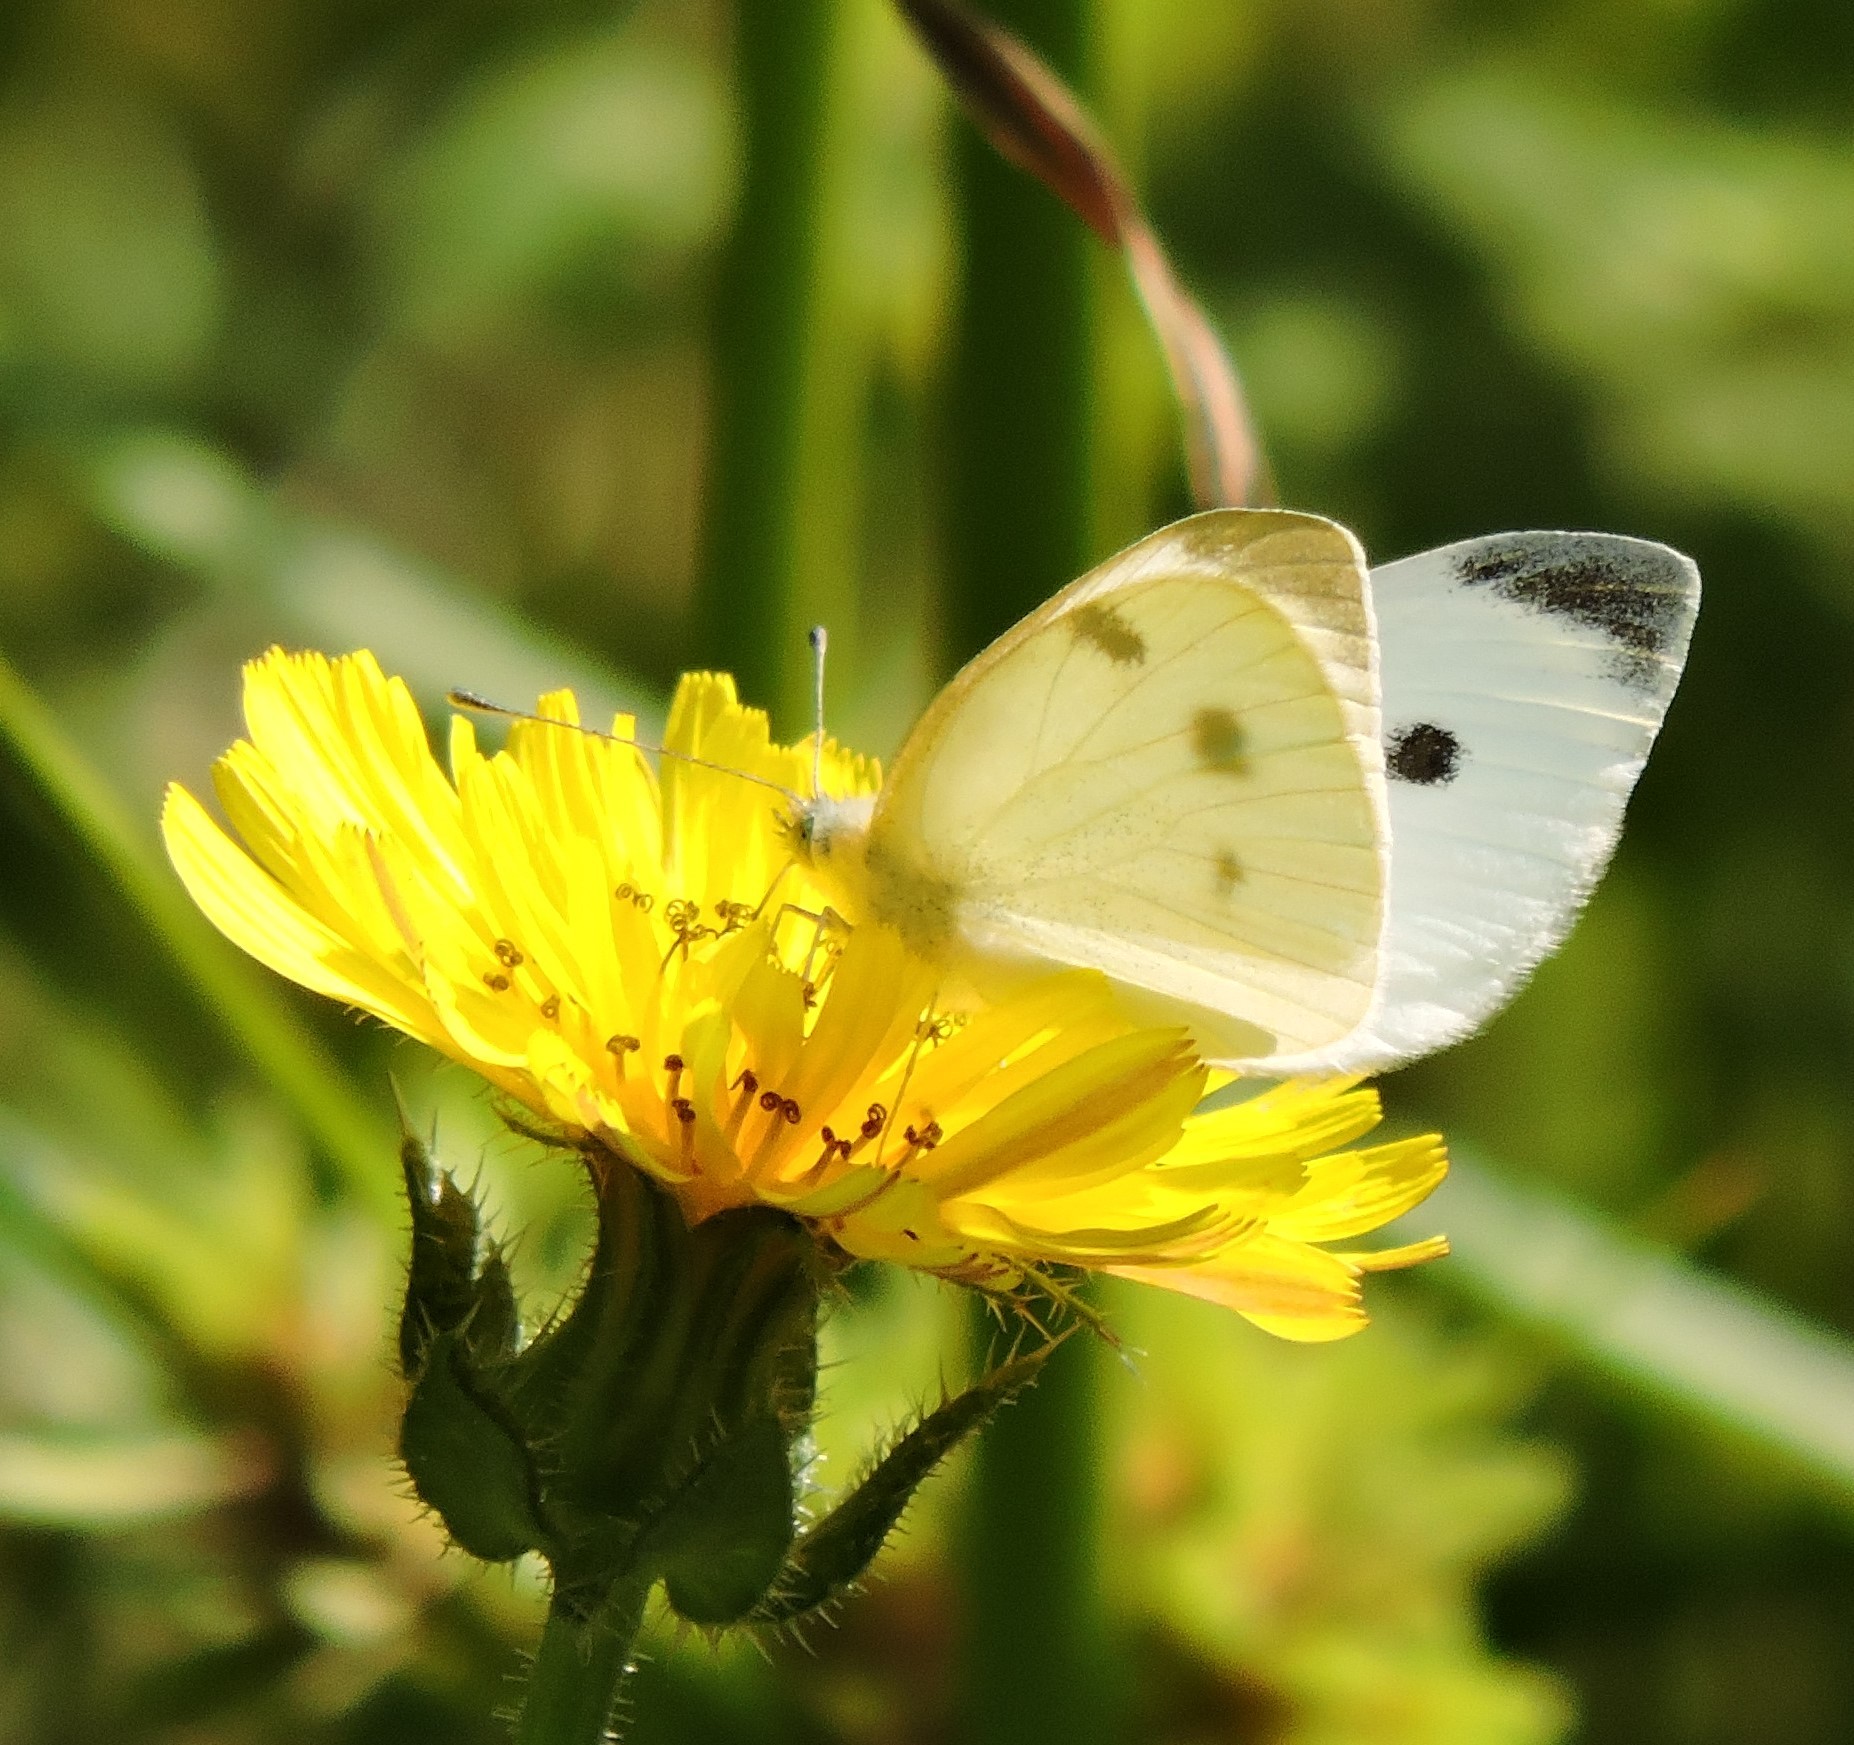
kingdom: Animalia
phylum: Arthropoda
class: Insecta
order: Lepidoptera
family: Pieridae
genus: Pieris
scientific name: Pieris rapae
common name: Small white
